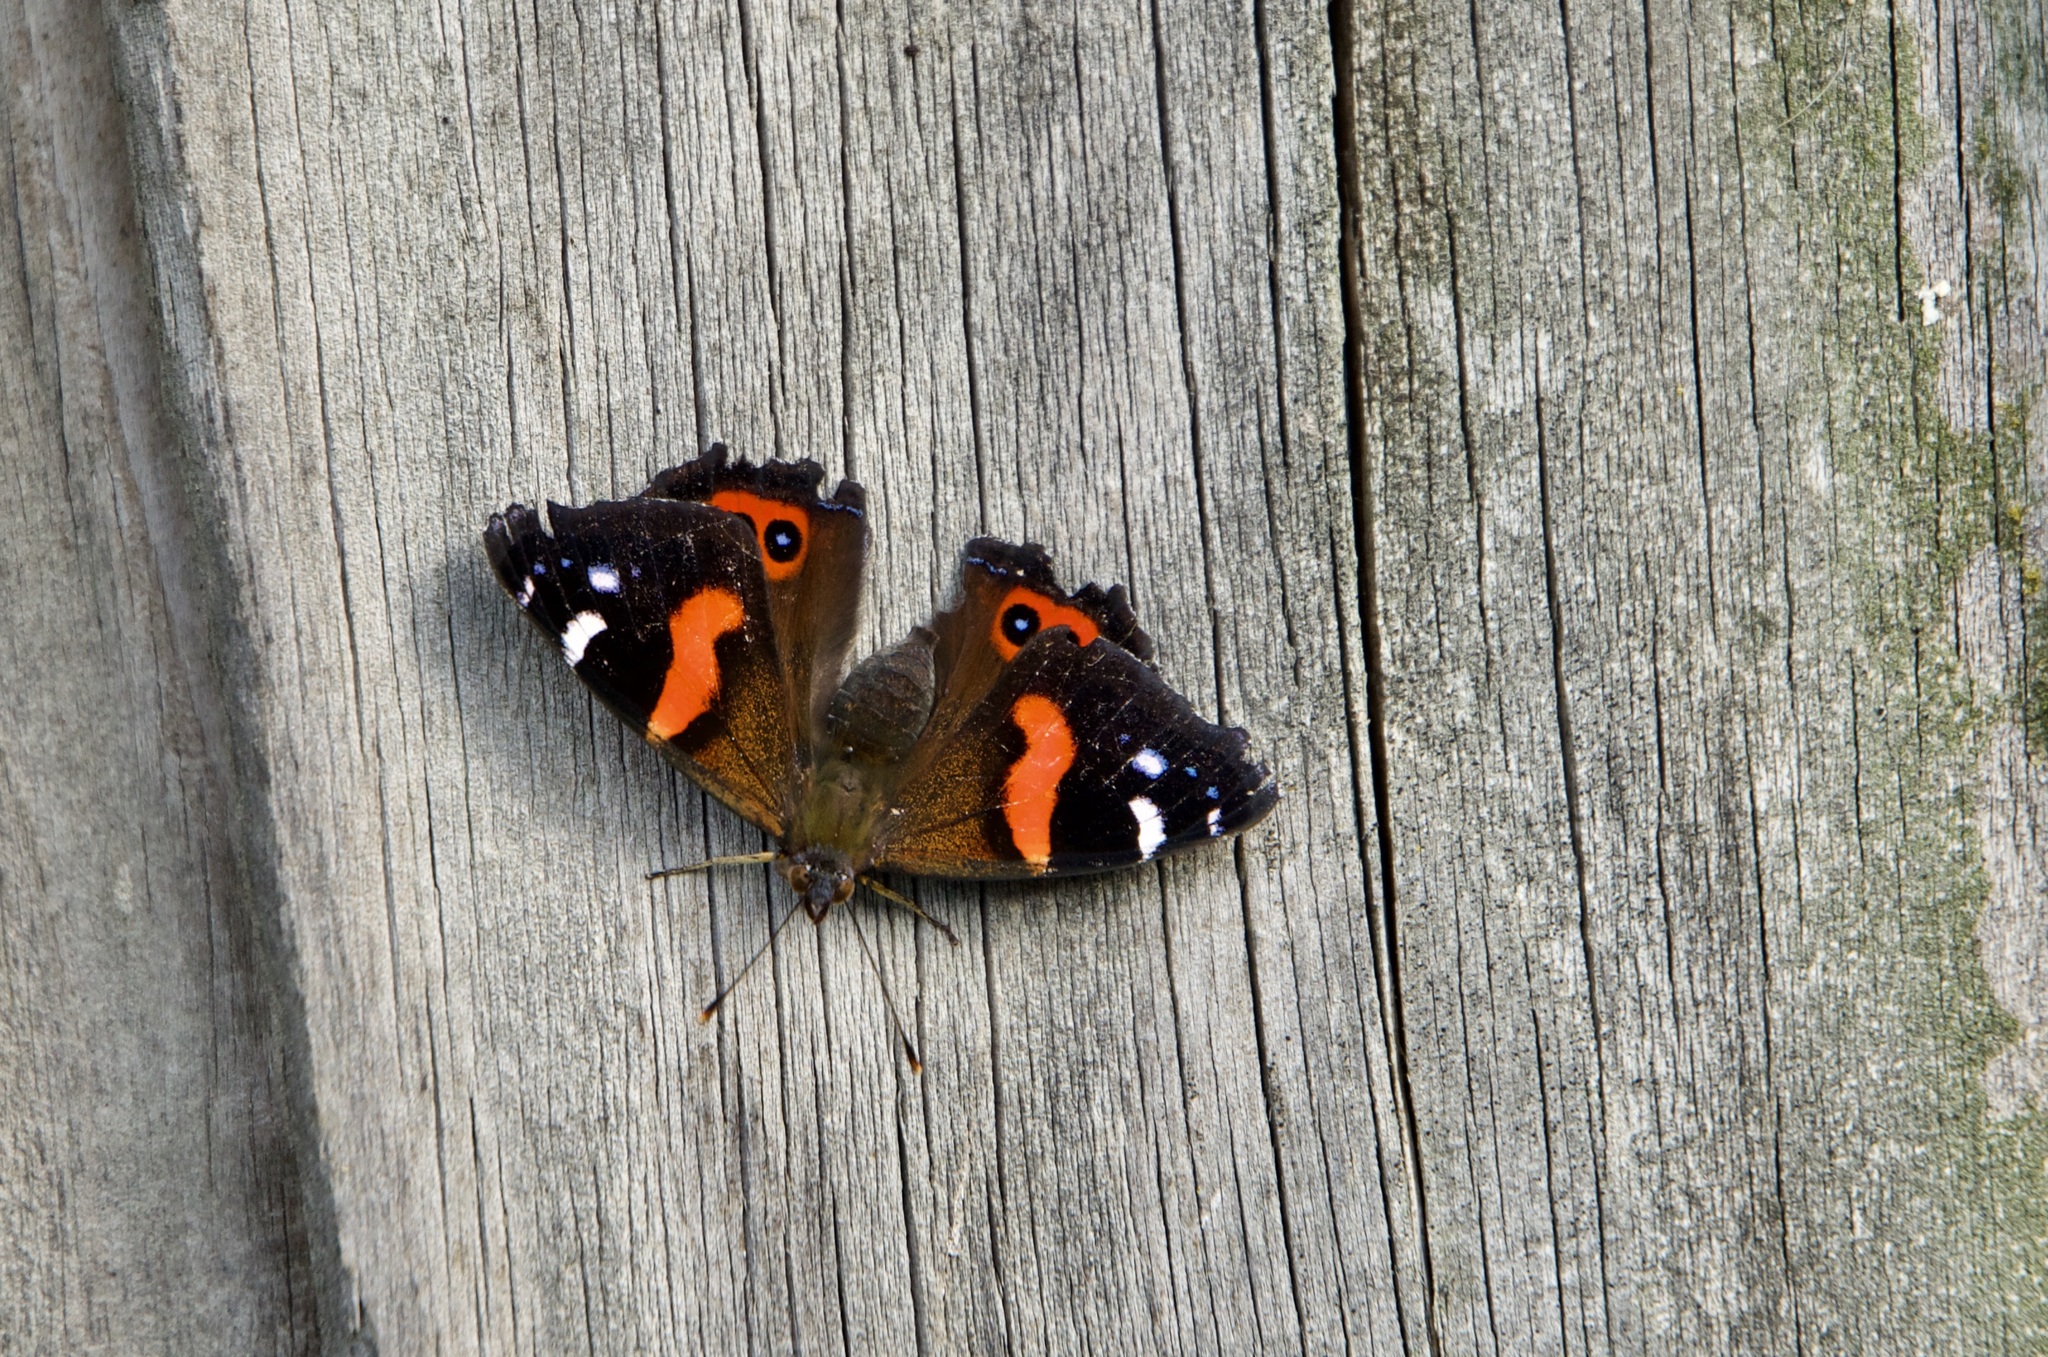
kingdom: Animalia
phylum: Arthropoda
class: Insecta
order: Lepidoptera
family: Nymphalidae
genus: Vanessa
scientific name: Vanessa gonerilla
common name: New zealand red admiral
